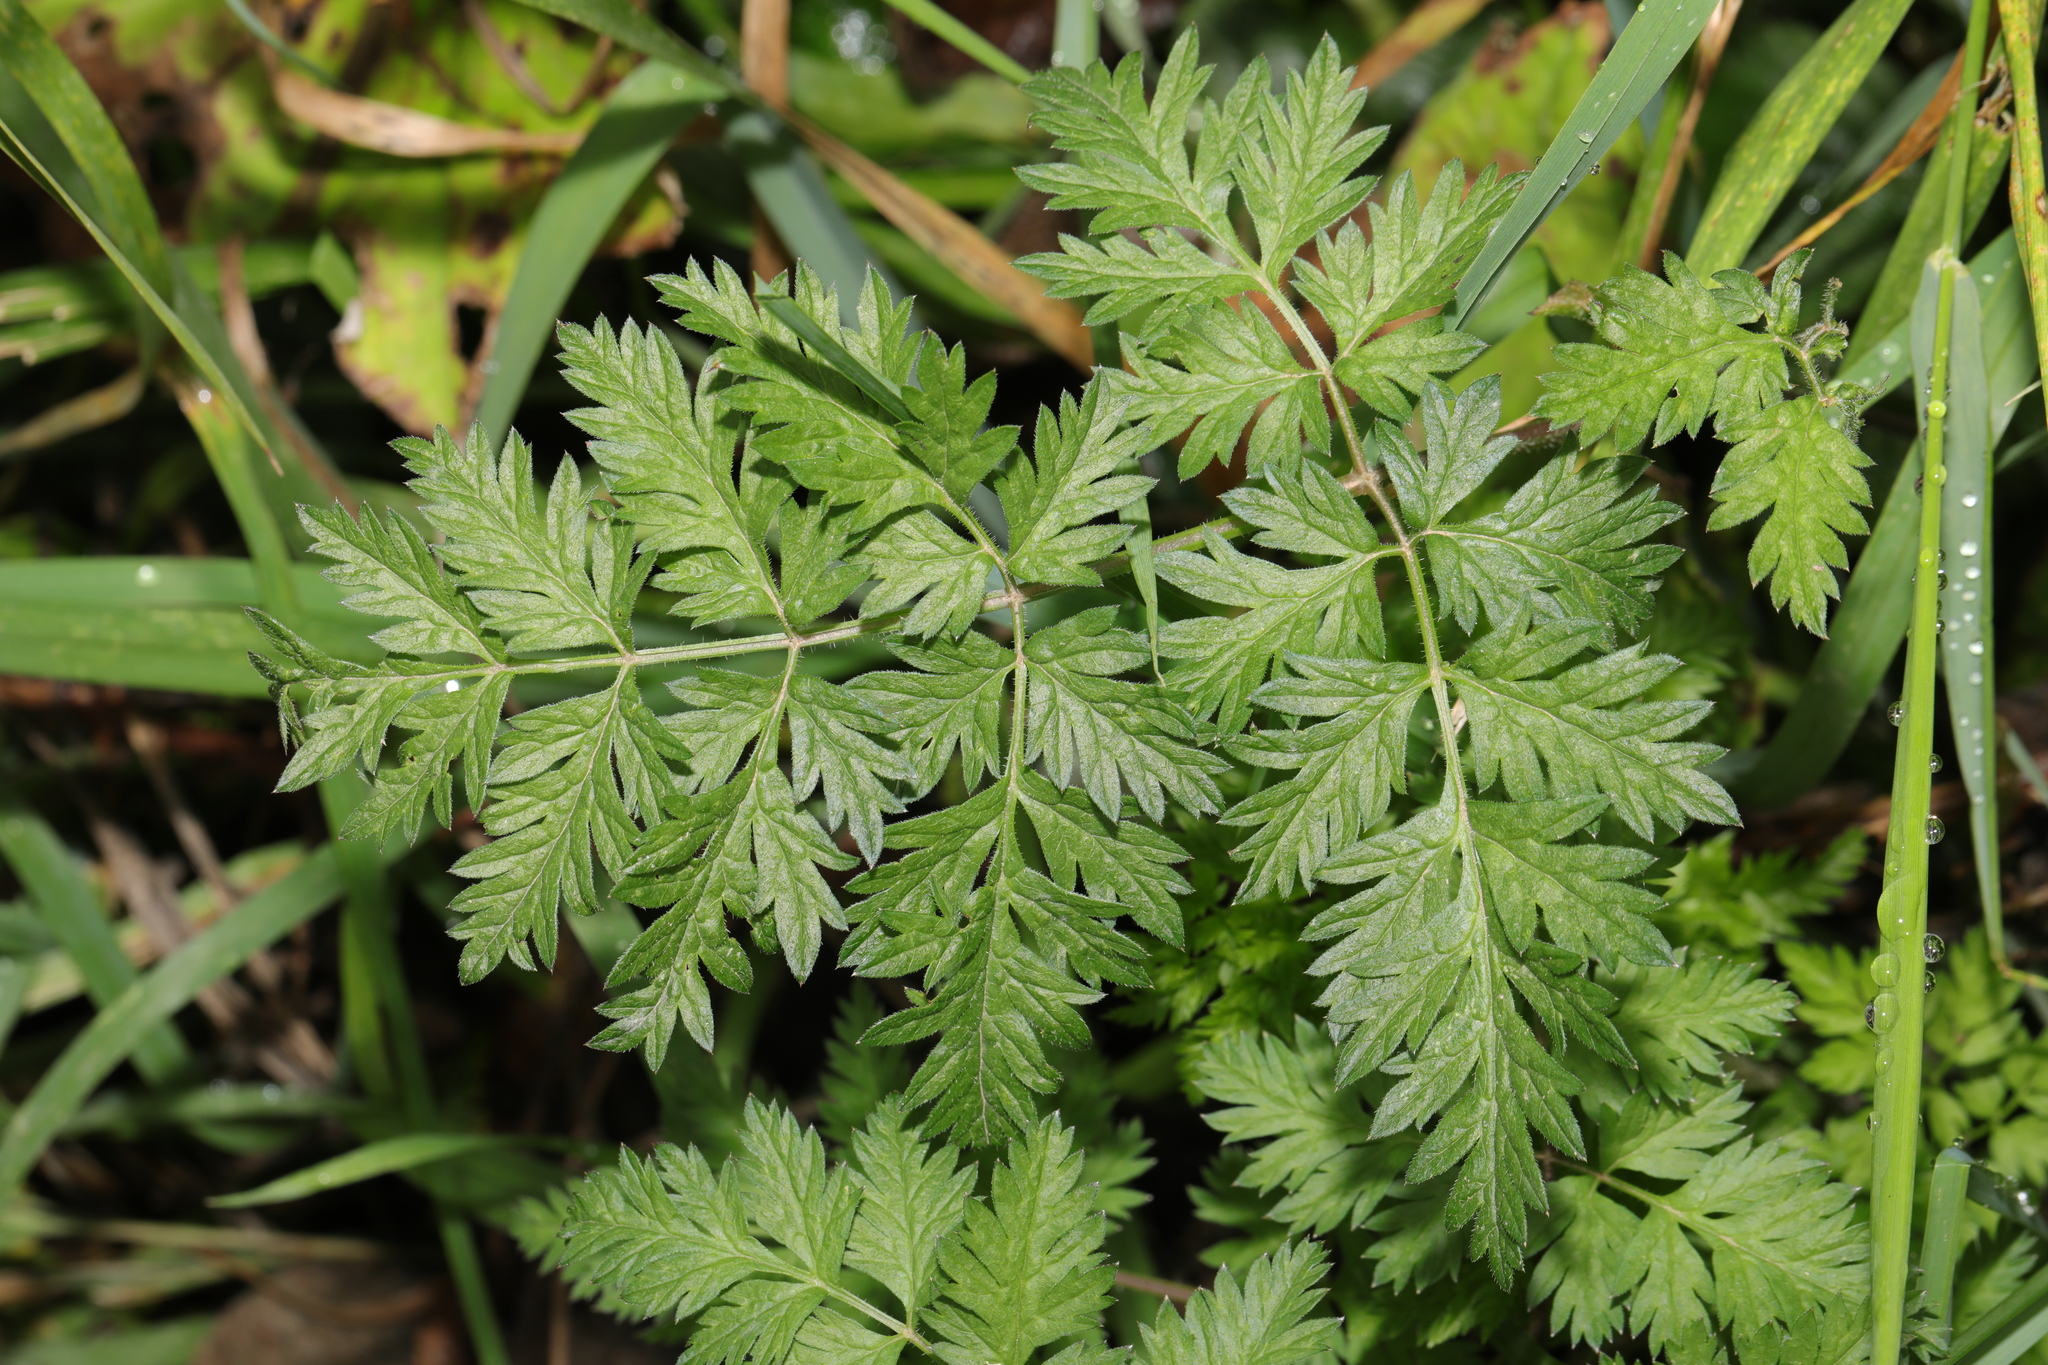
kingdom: Plantae
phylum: Tracheophyta
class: Magnoliopsida
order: Apiales
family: Apiaceae
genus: Anthriscus
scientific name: Anthriscus sylvestris
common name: Cow parsley
